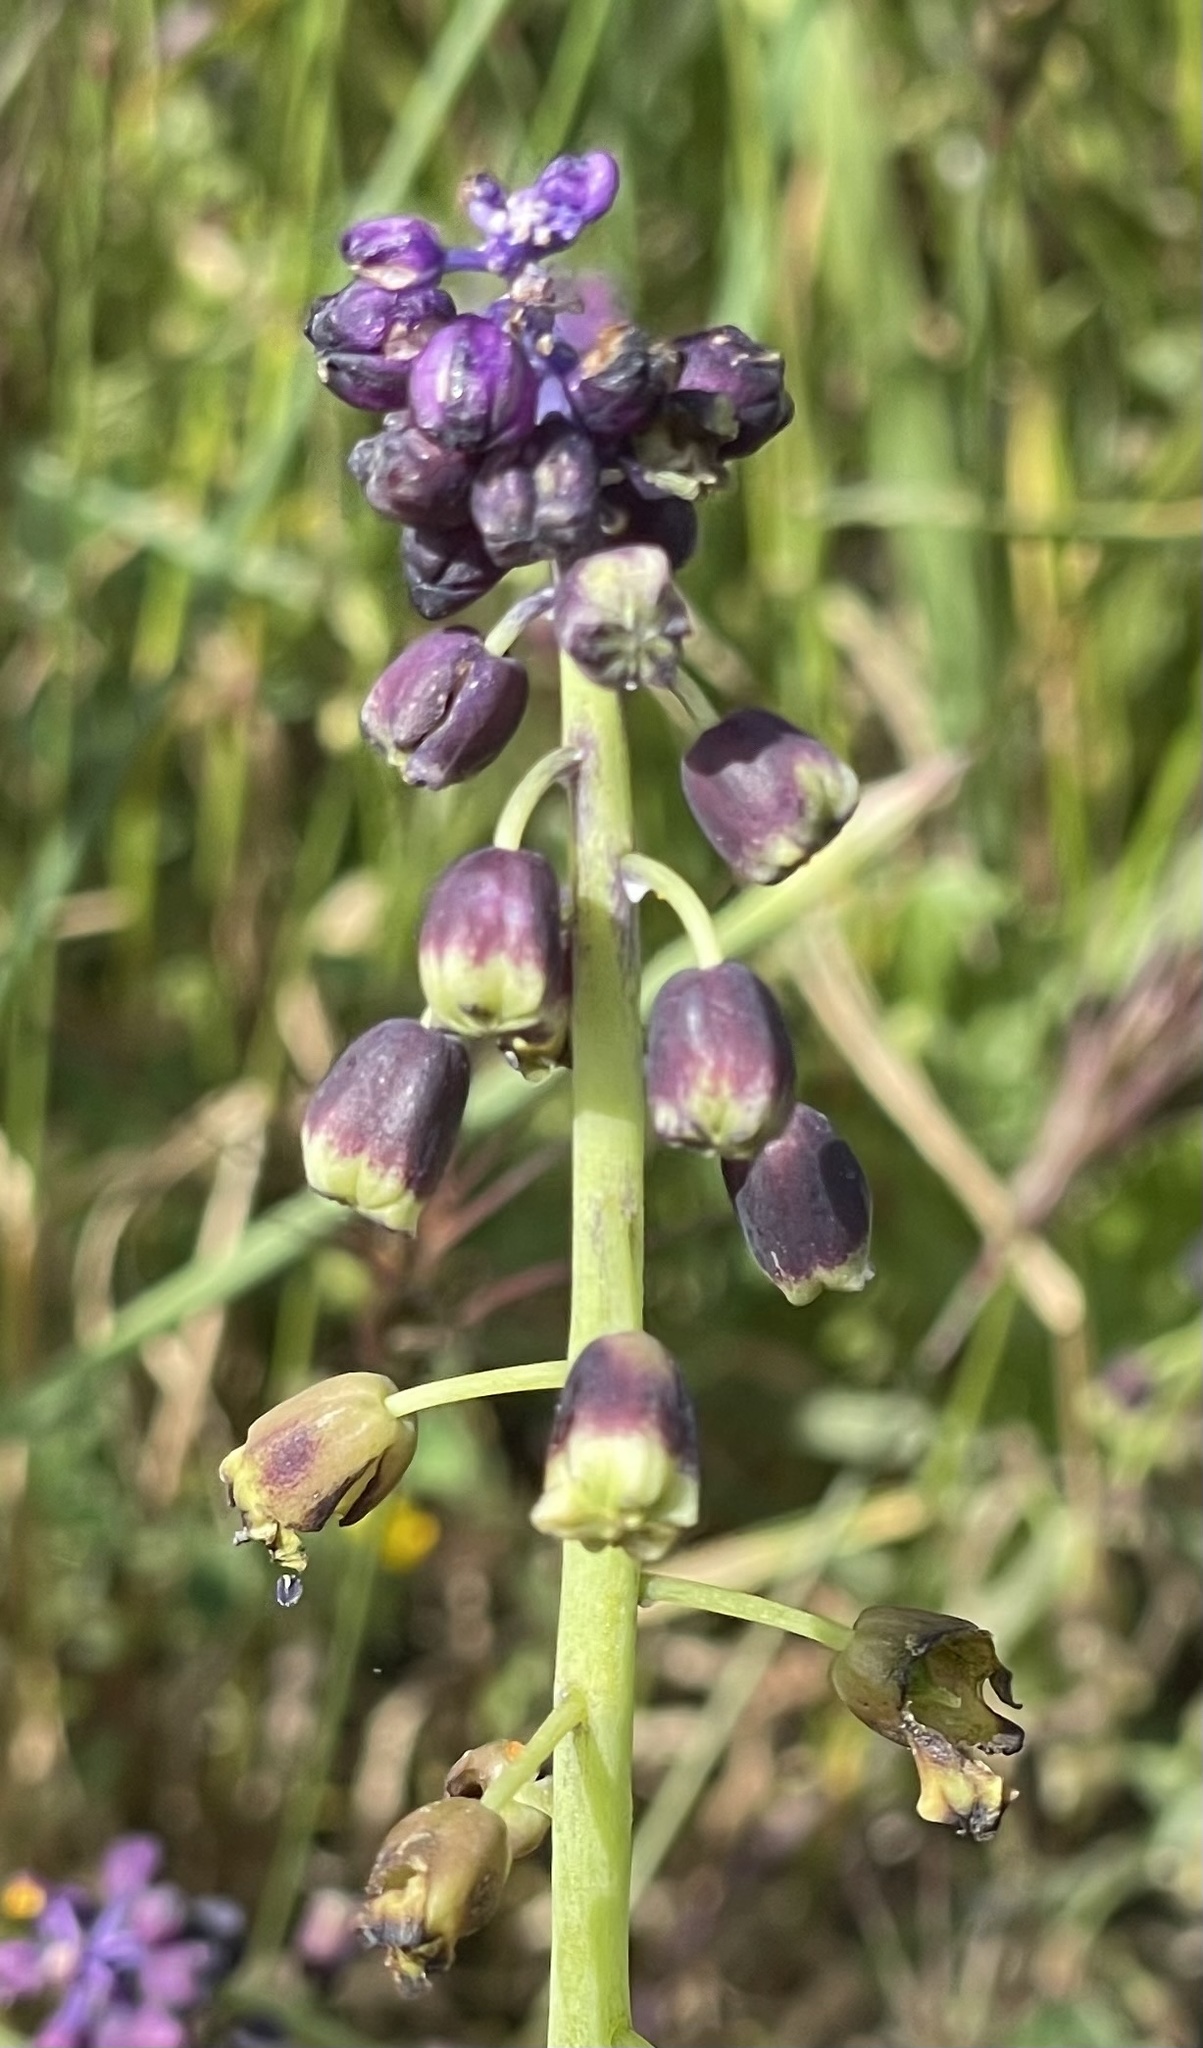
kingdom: Plantae
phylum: Tracheophyta
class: Liliopsida
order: Asparagales
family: Asparagaceae
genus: Muscari
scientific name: Muscari bicolor
